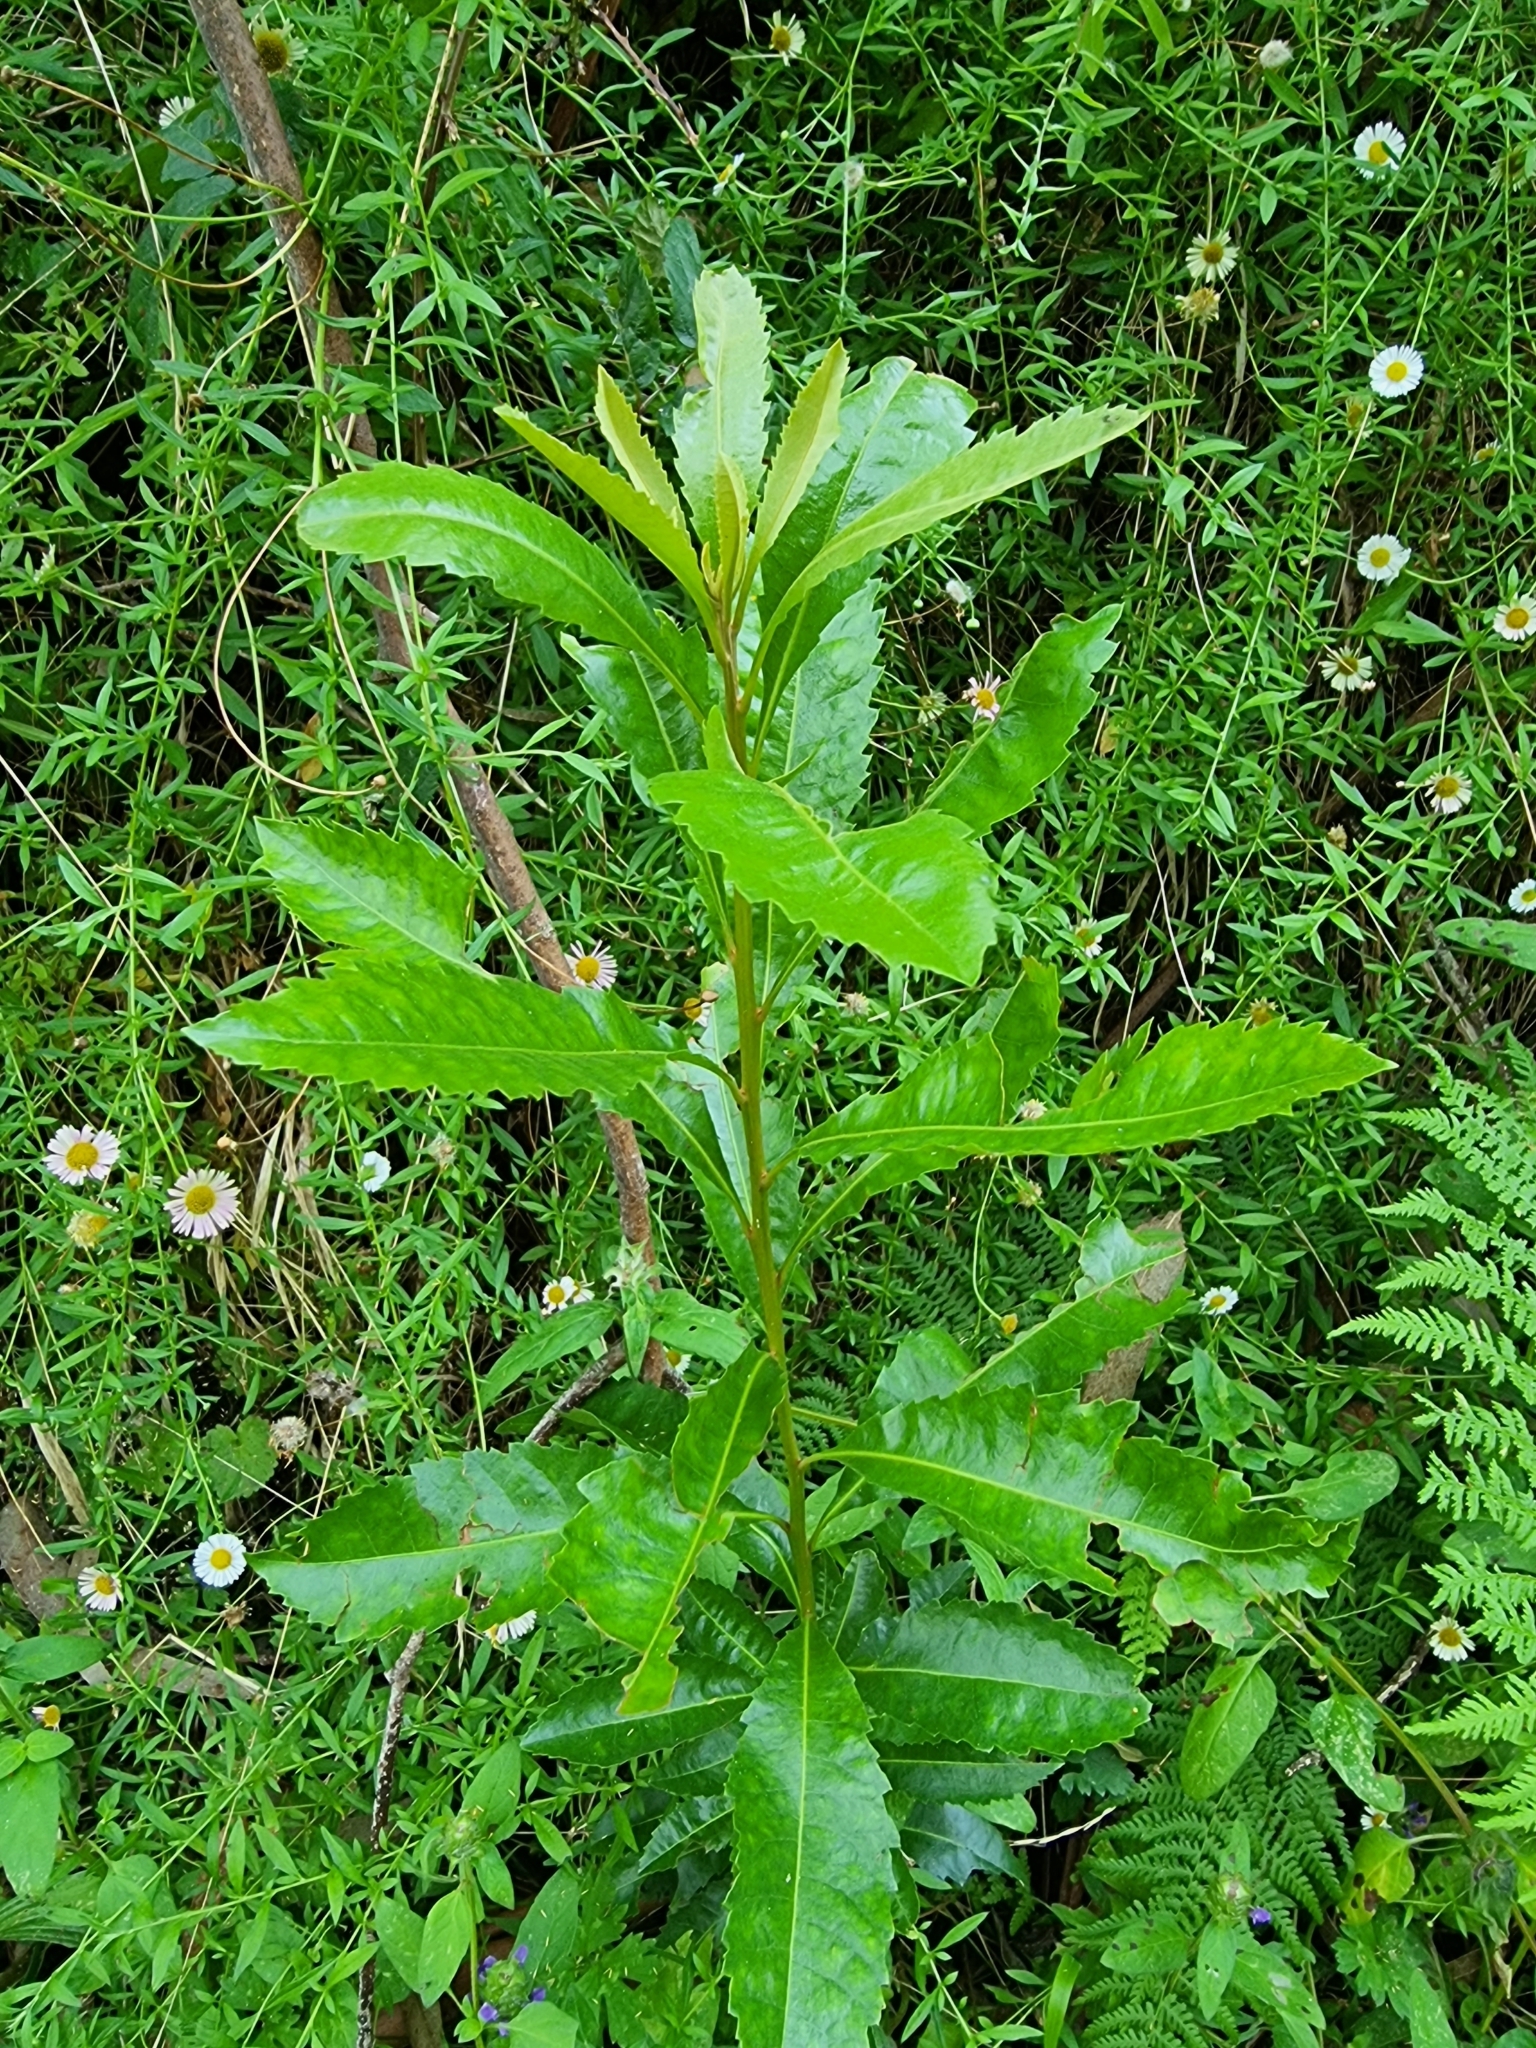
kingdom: Plantae
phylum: Tracheophyta
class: Magnoliopsida
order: Fagales
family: Myricaceae
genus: Morella
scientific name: Morella faya
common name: Firetree
